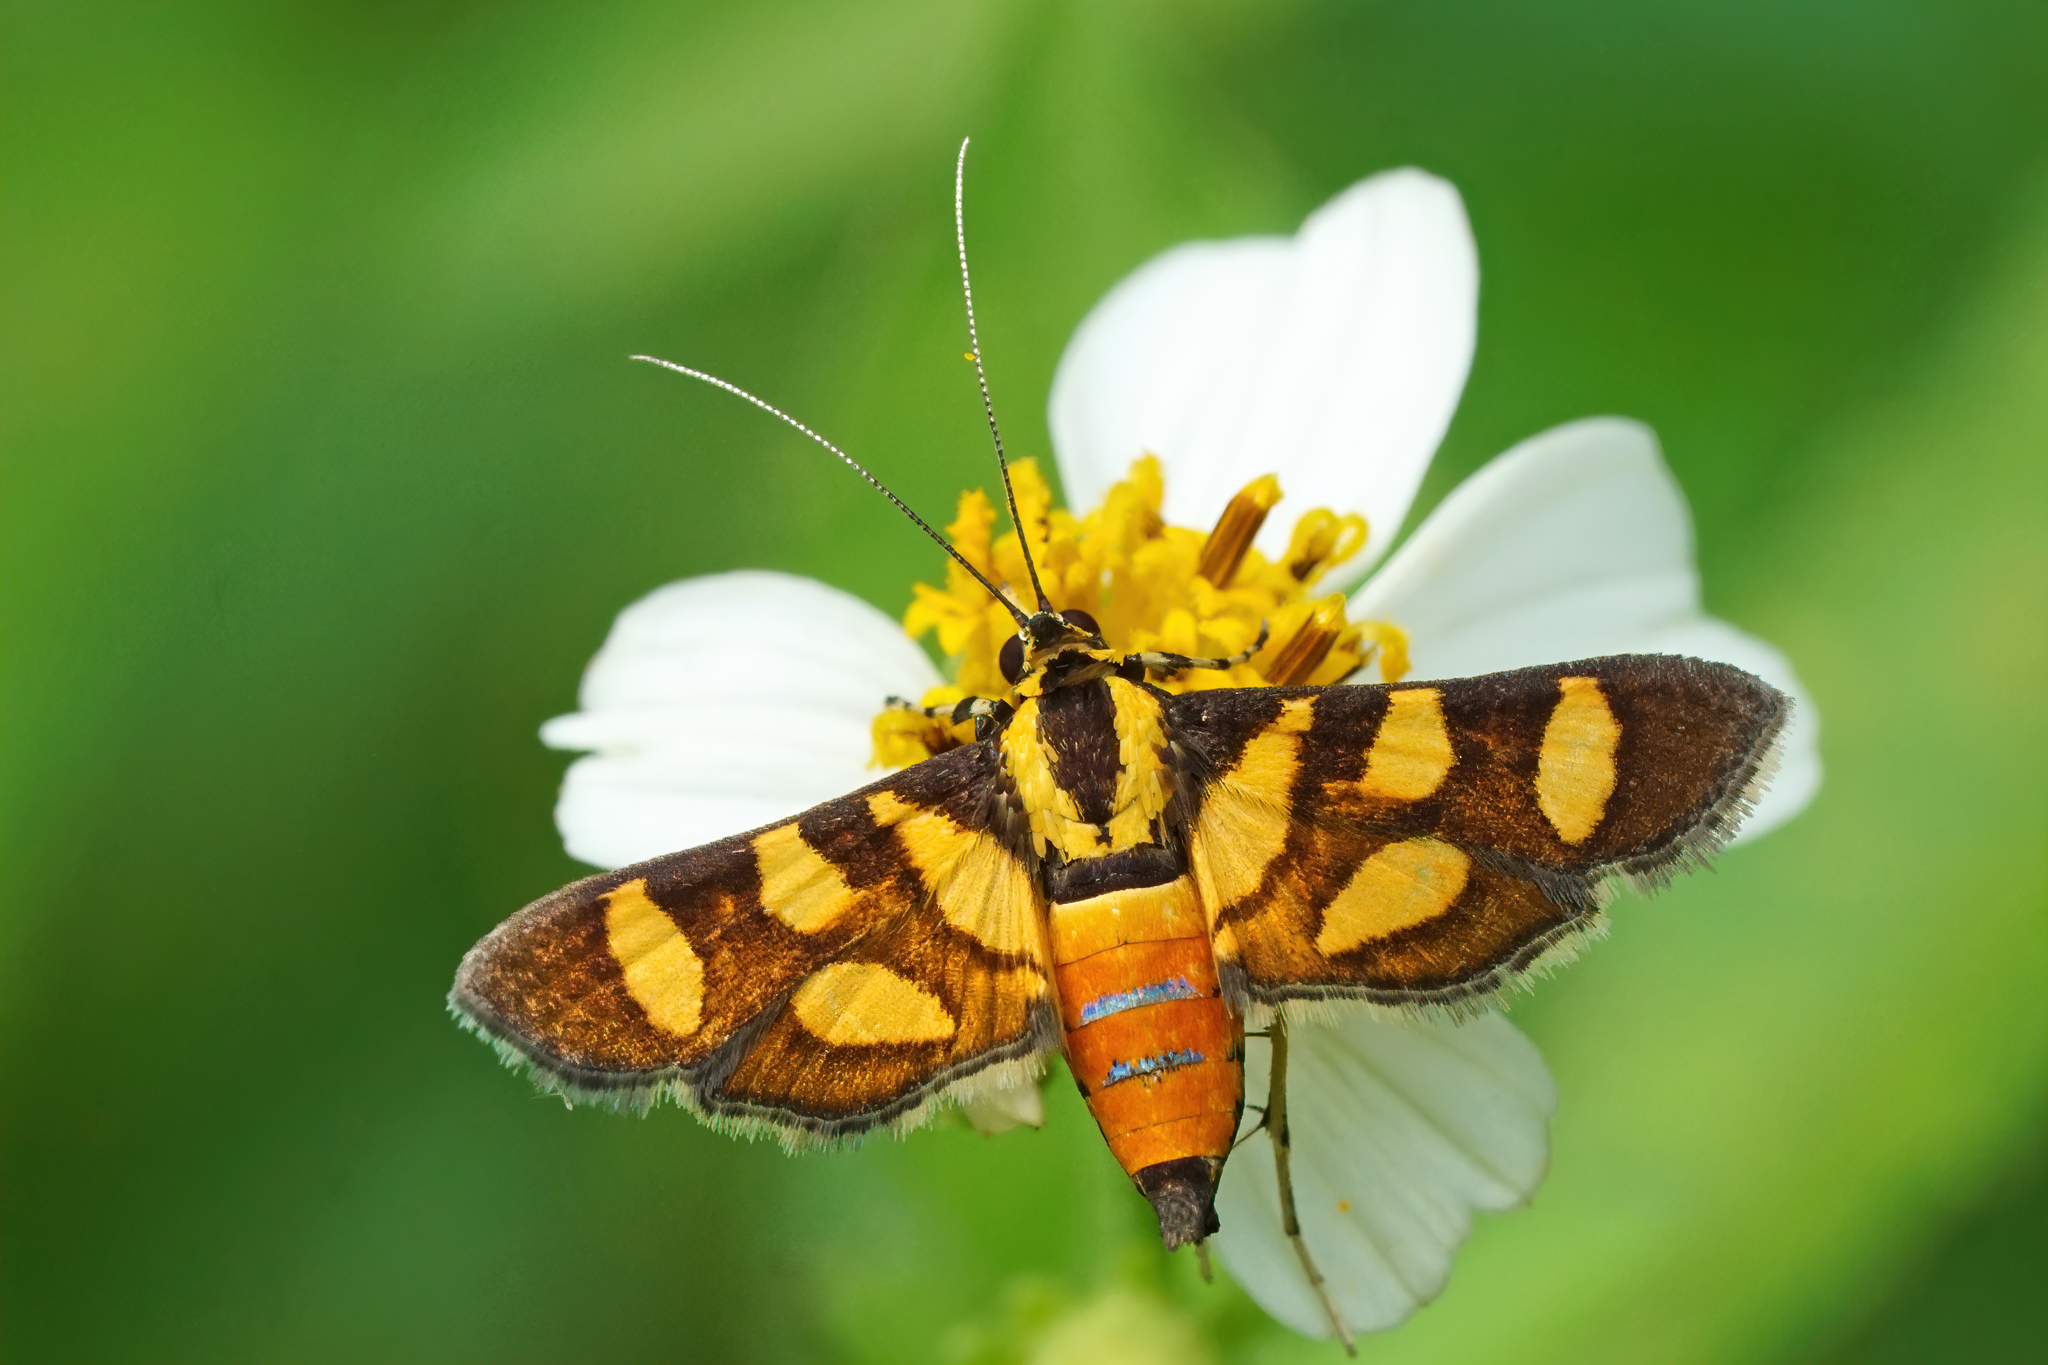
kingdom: Animalia
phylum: Arthropoda
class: Insecta
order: Lepidoptera
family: Crambidae
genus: Syngamia
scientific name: Syngamia florella
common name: Orange-spotted flower moth
